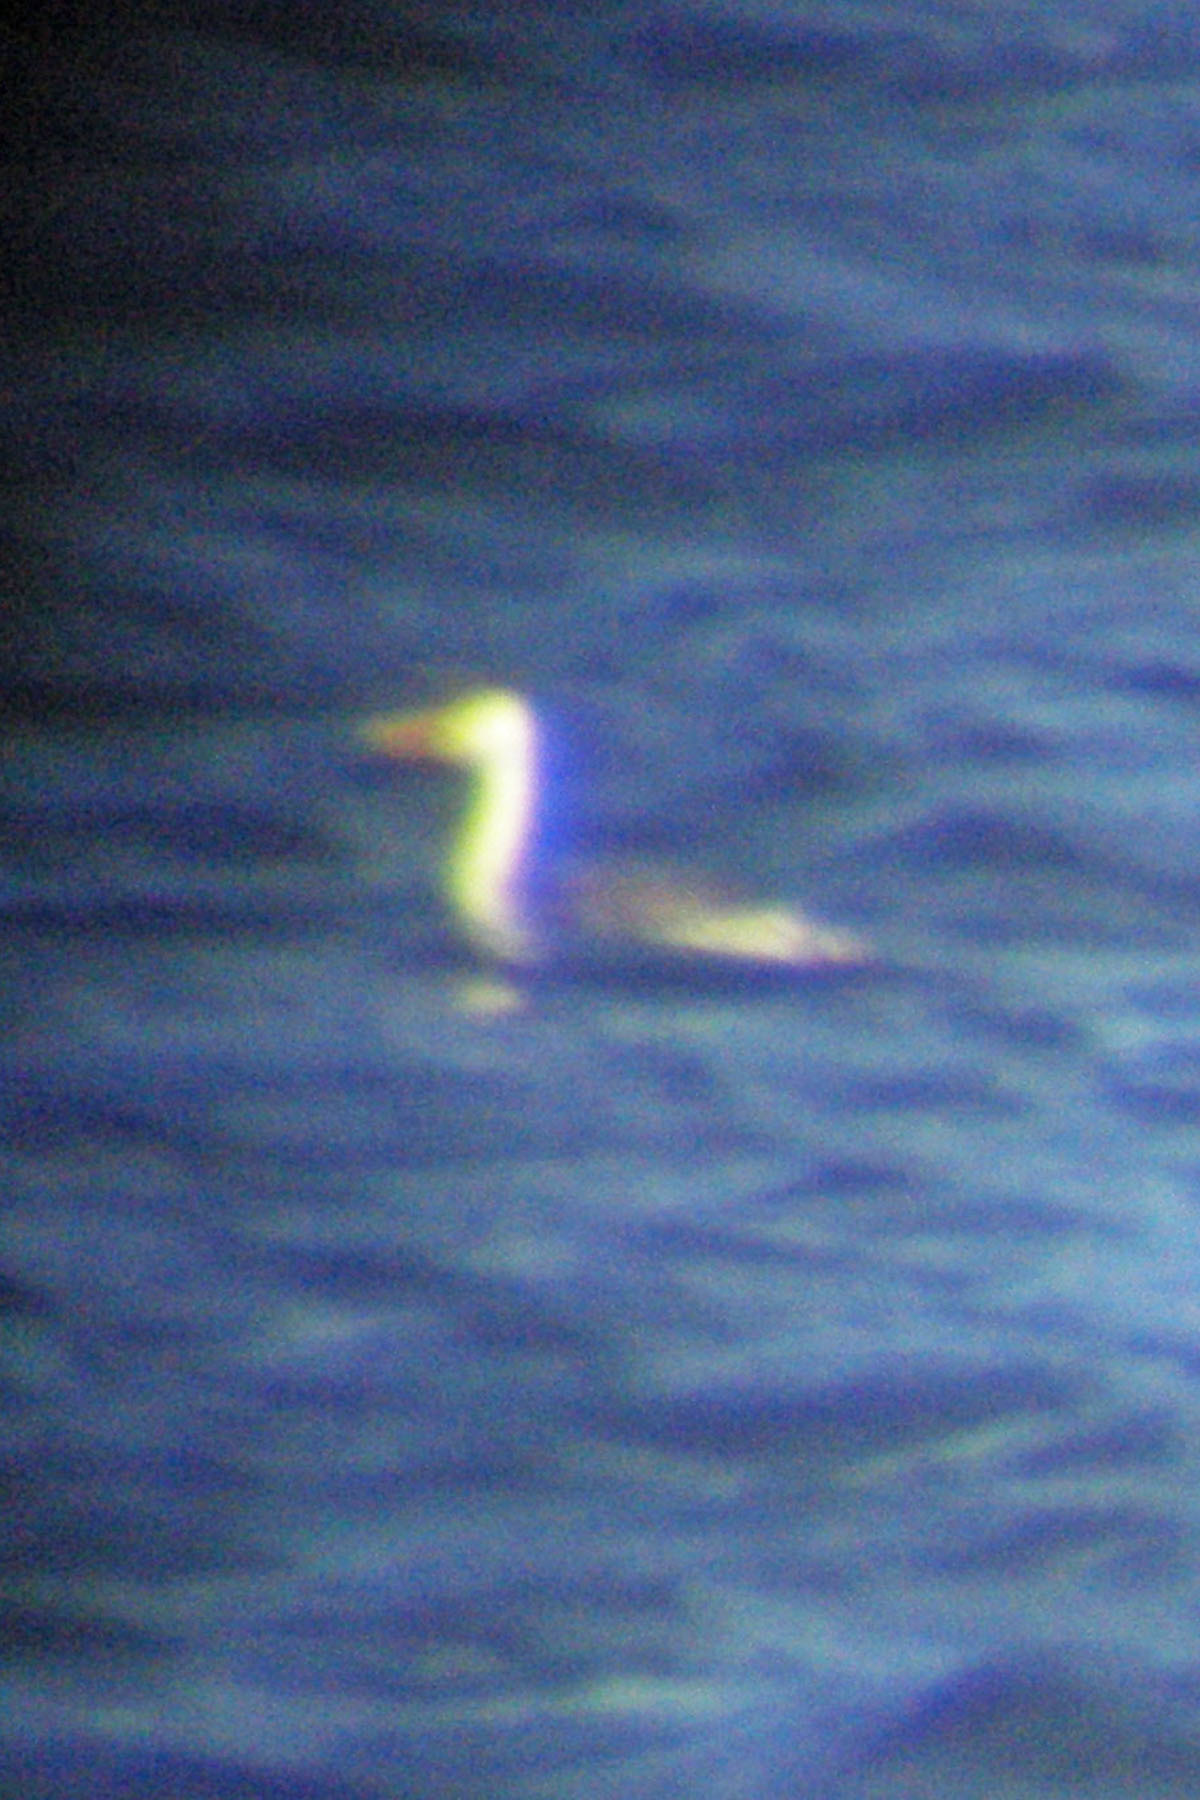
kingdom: Animalia
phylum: Chordata
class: Aves
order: Podicipediformes
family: Podicipedidae
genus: Aechmophorus
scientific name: Aechmophorus occidentalis
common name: Western grebe
